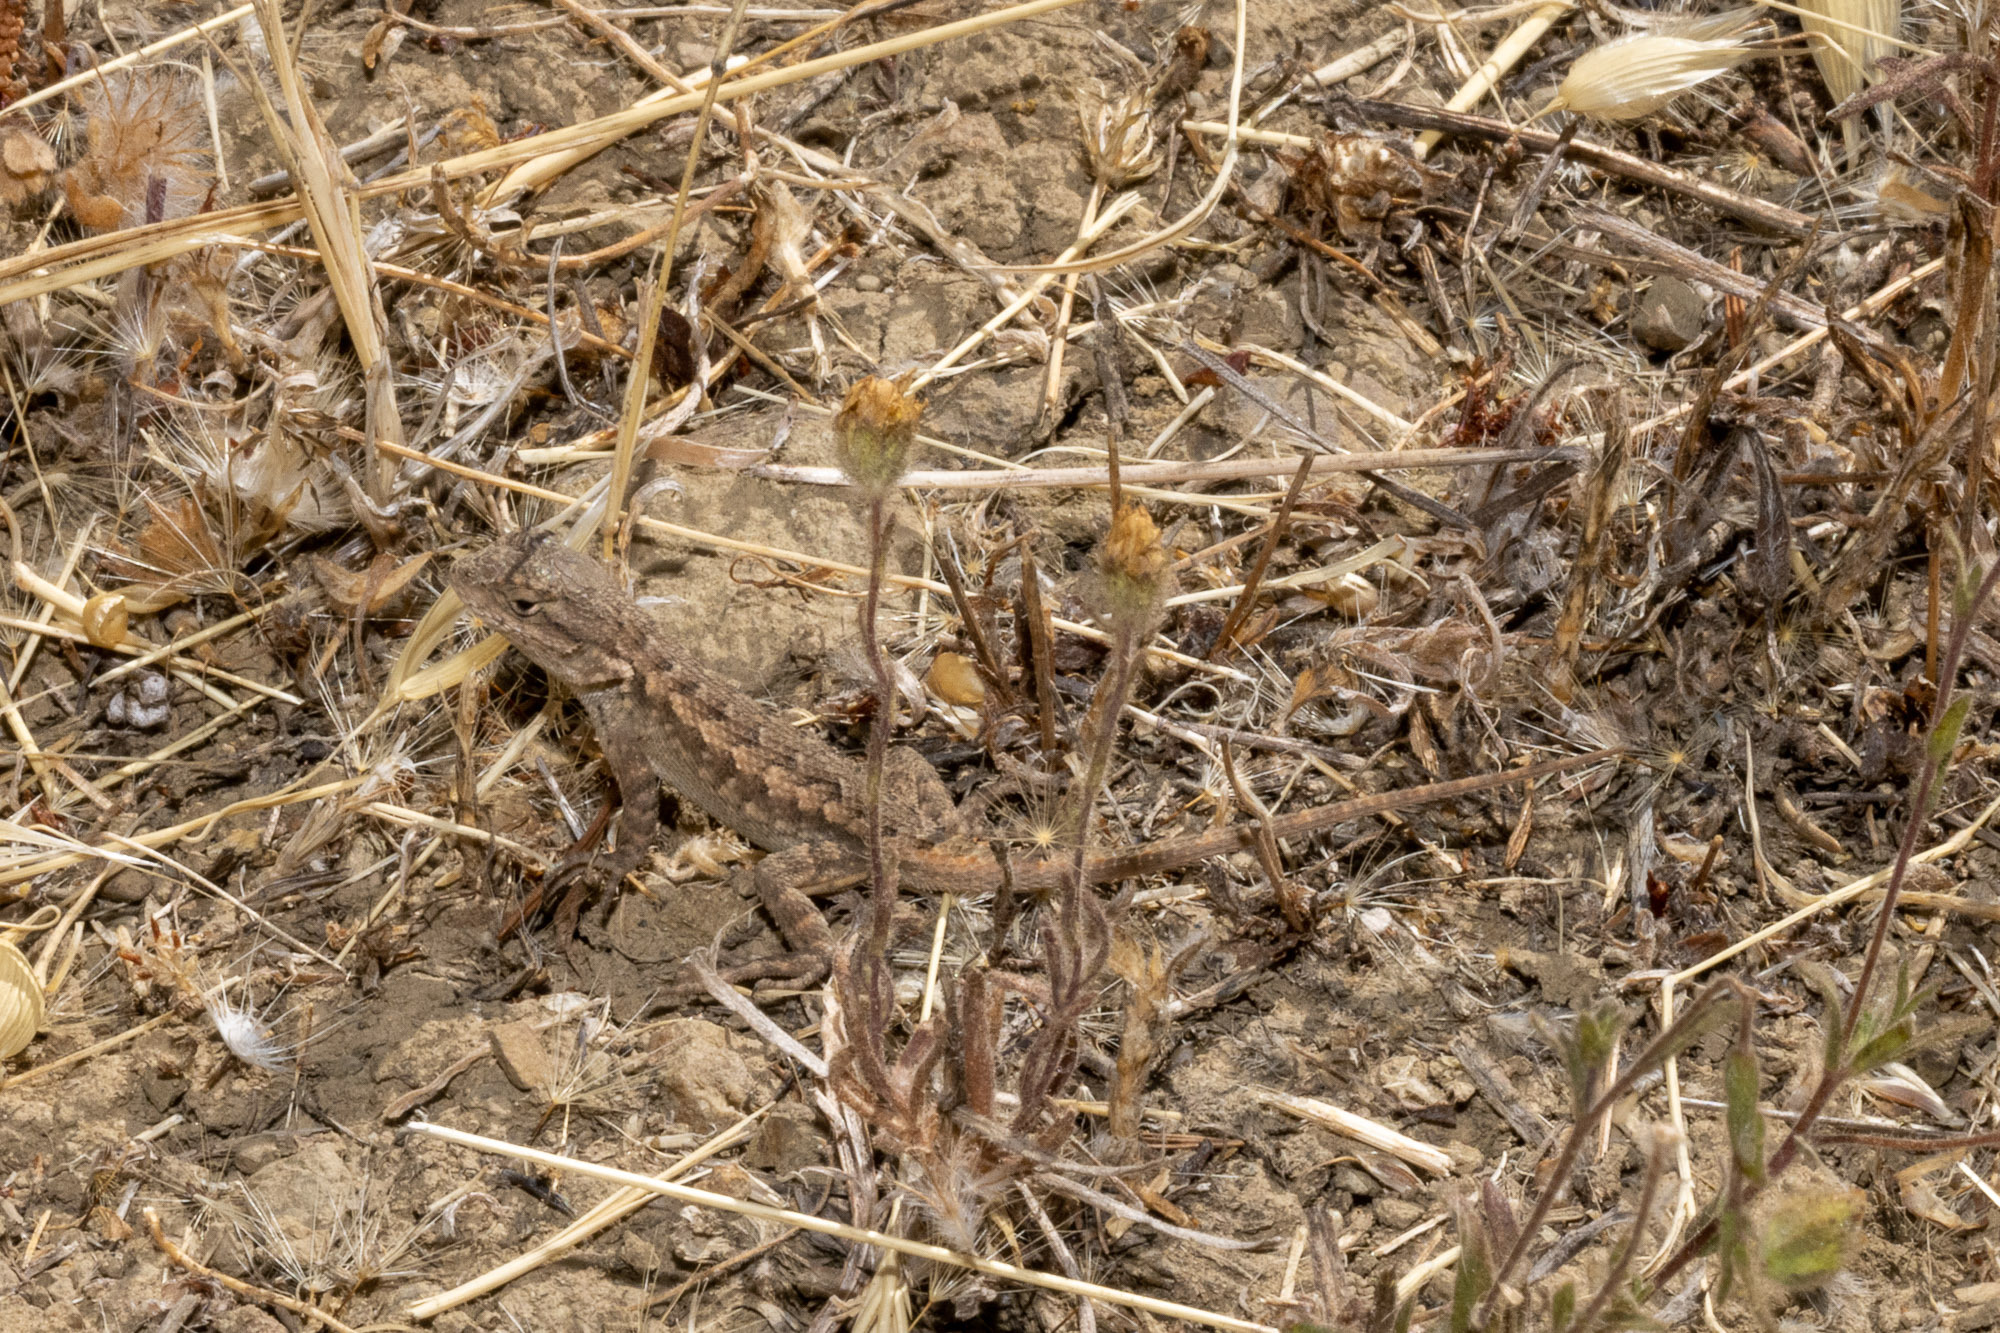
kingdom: Animalia
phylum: Chordata
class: Squamata
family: Phrynosomatidae
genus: Sceloporus
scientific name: Sceloporus occidentalis
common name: Western fence lizard
